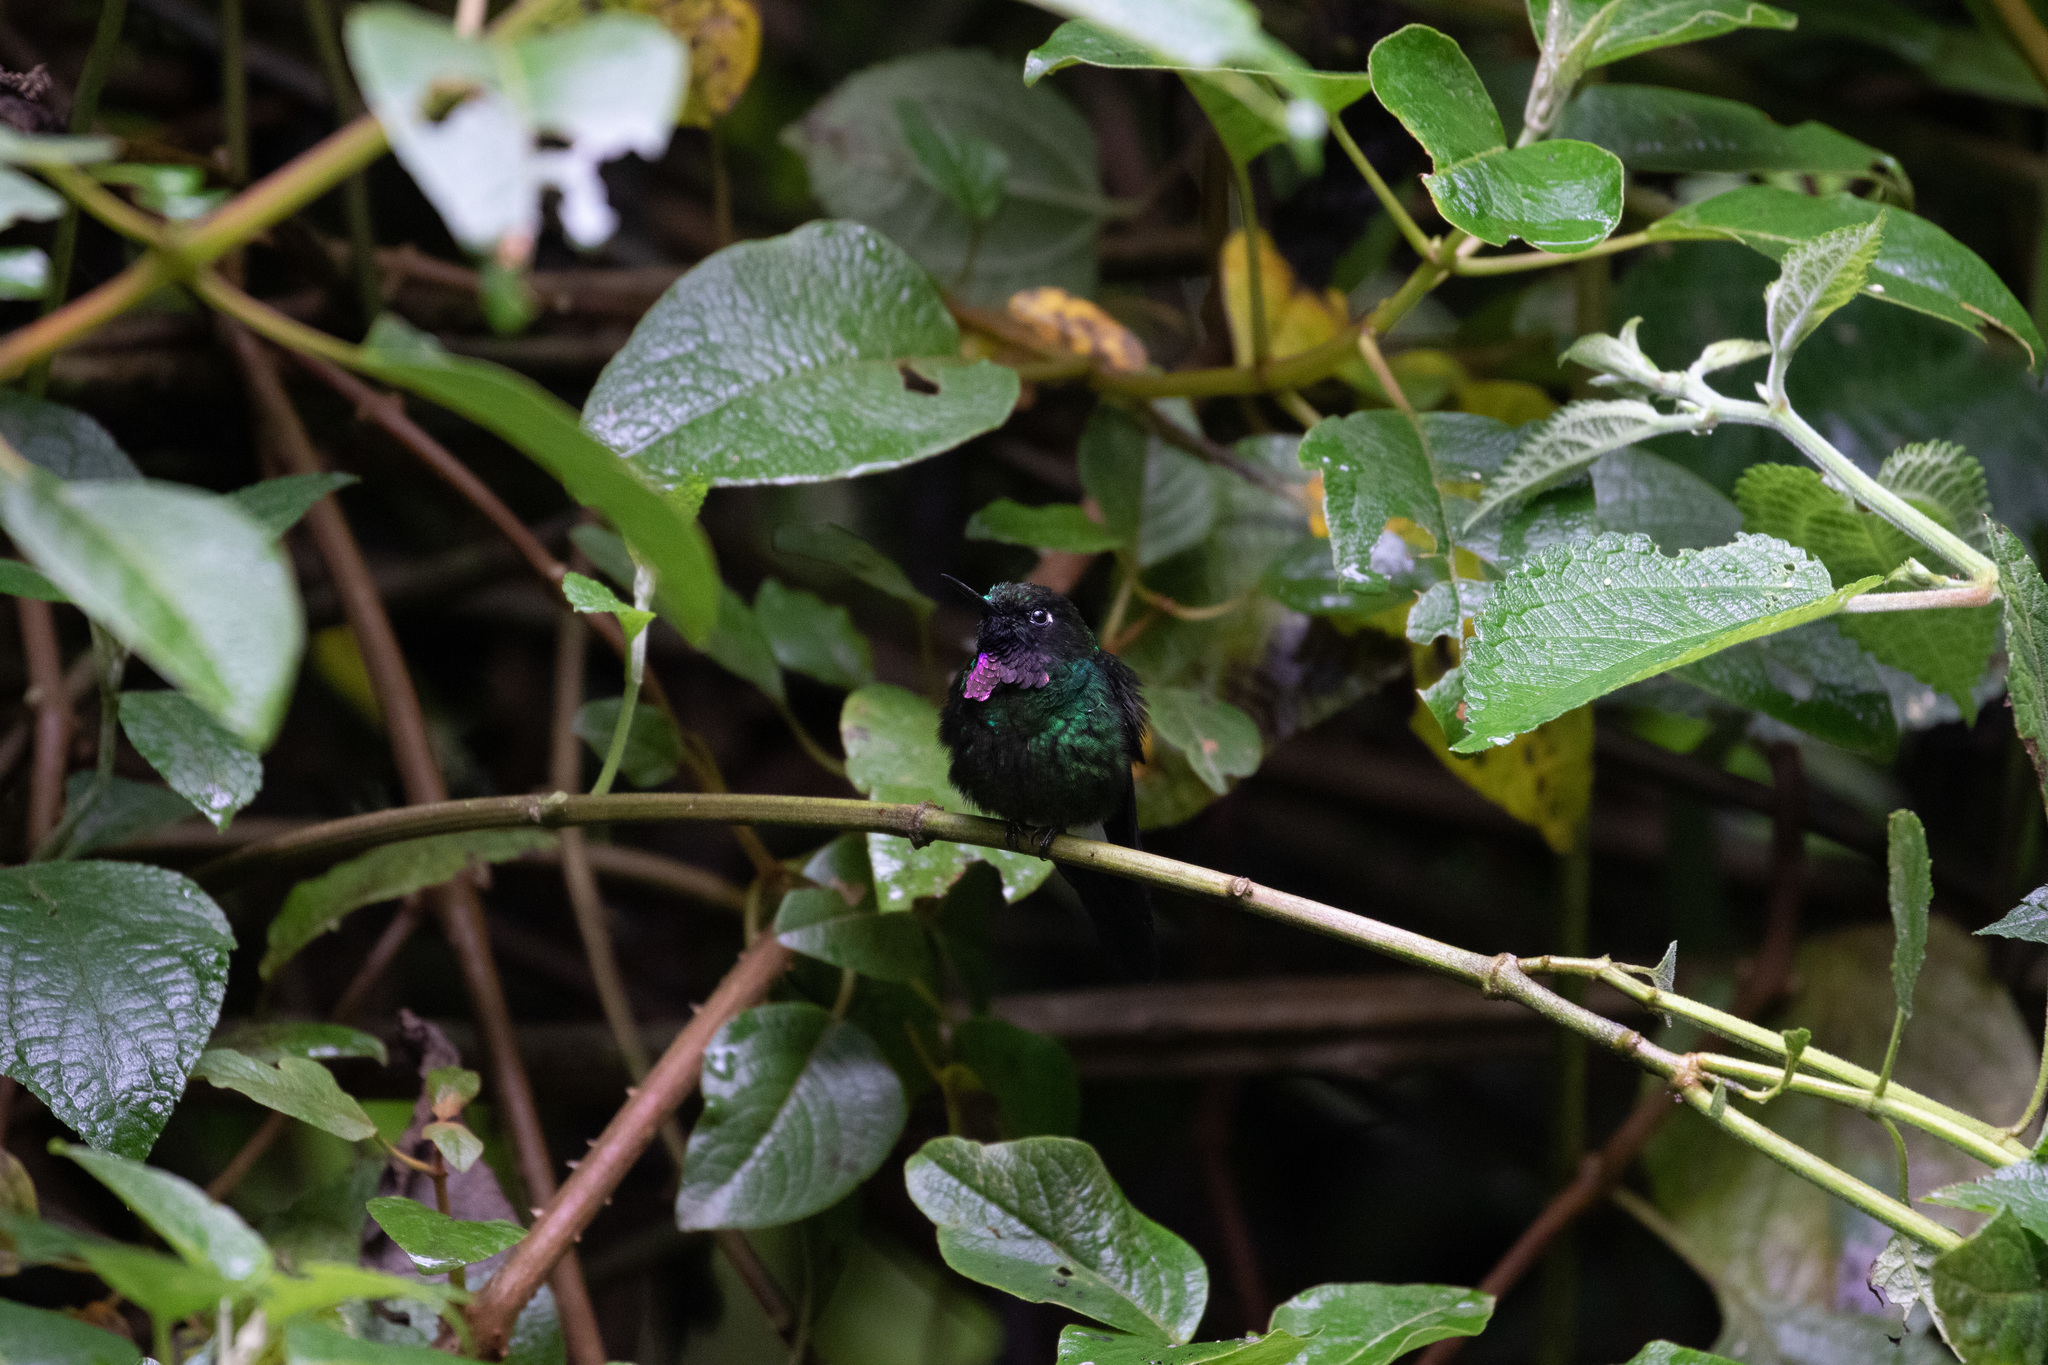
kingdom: Animalia
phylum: Chordata
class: Aves
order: Apodiformes
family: Trochilidae
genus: Heliangelus
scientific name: Heliangelus exortis
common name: Tourmaline sunangel
